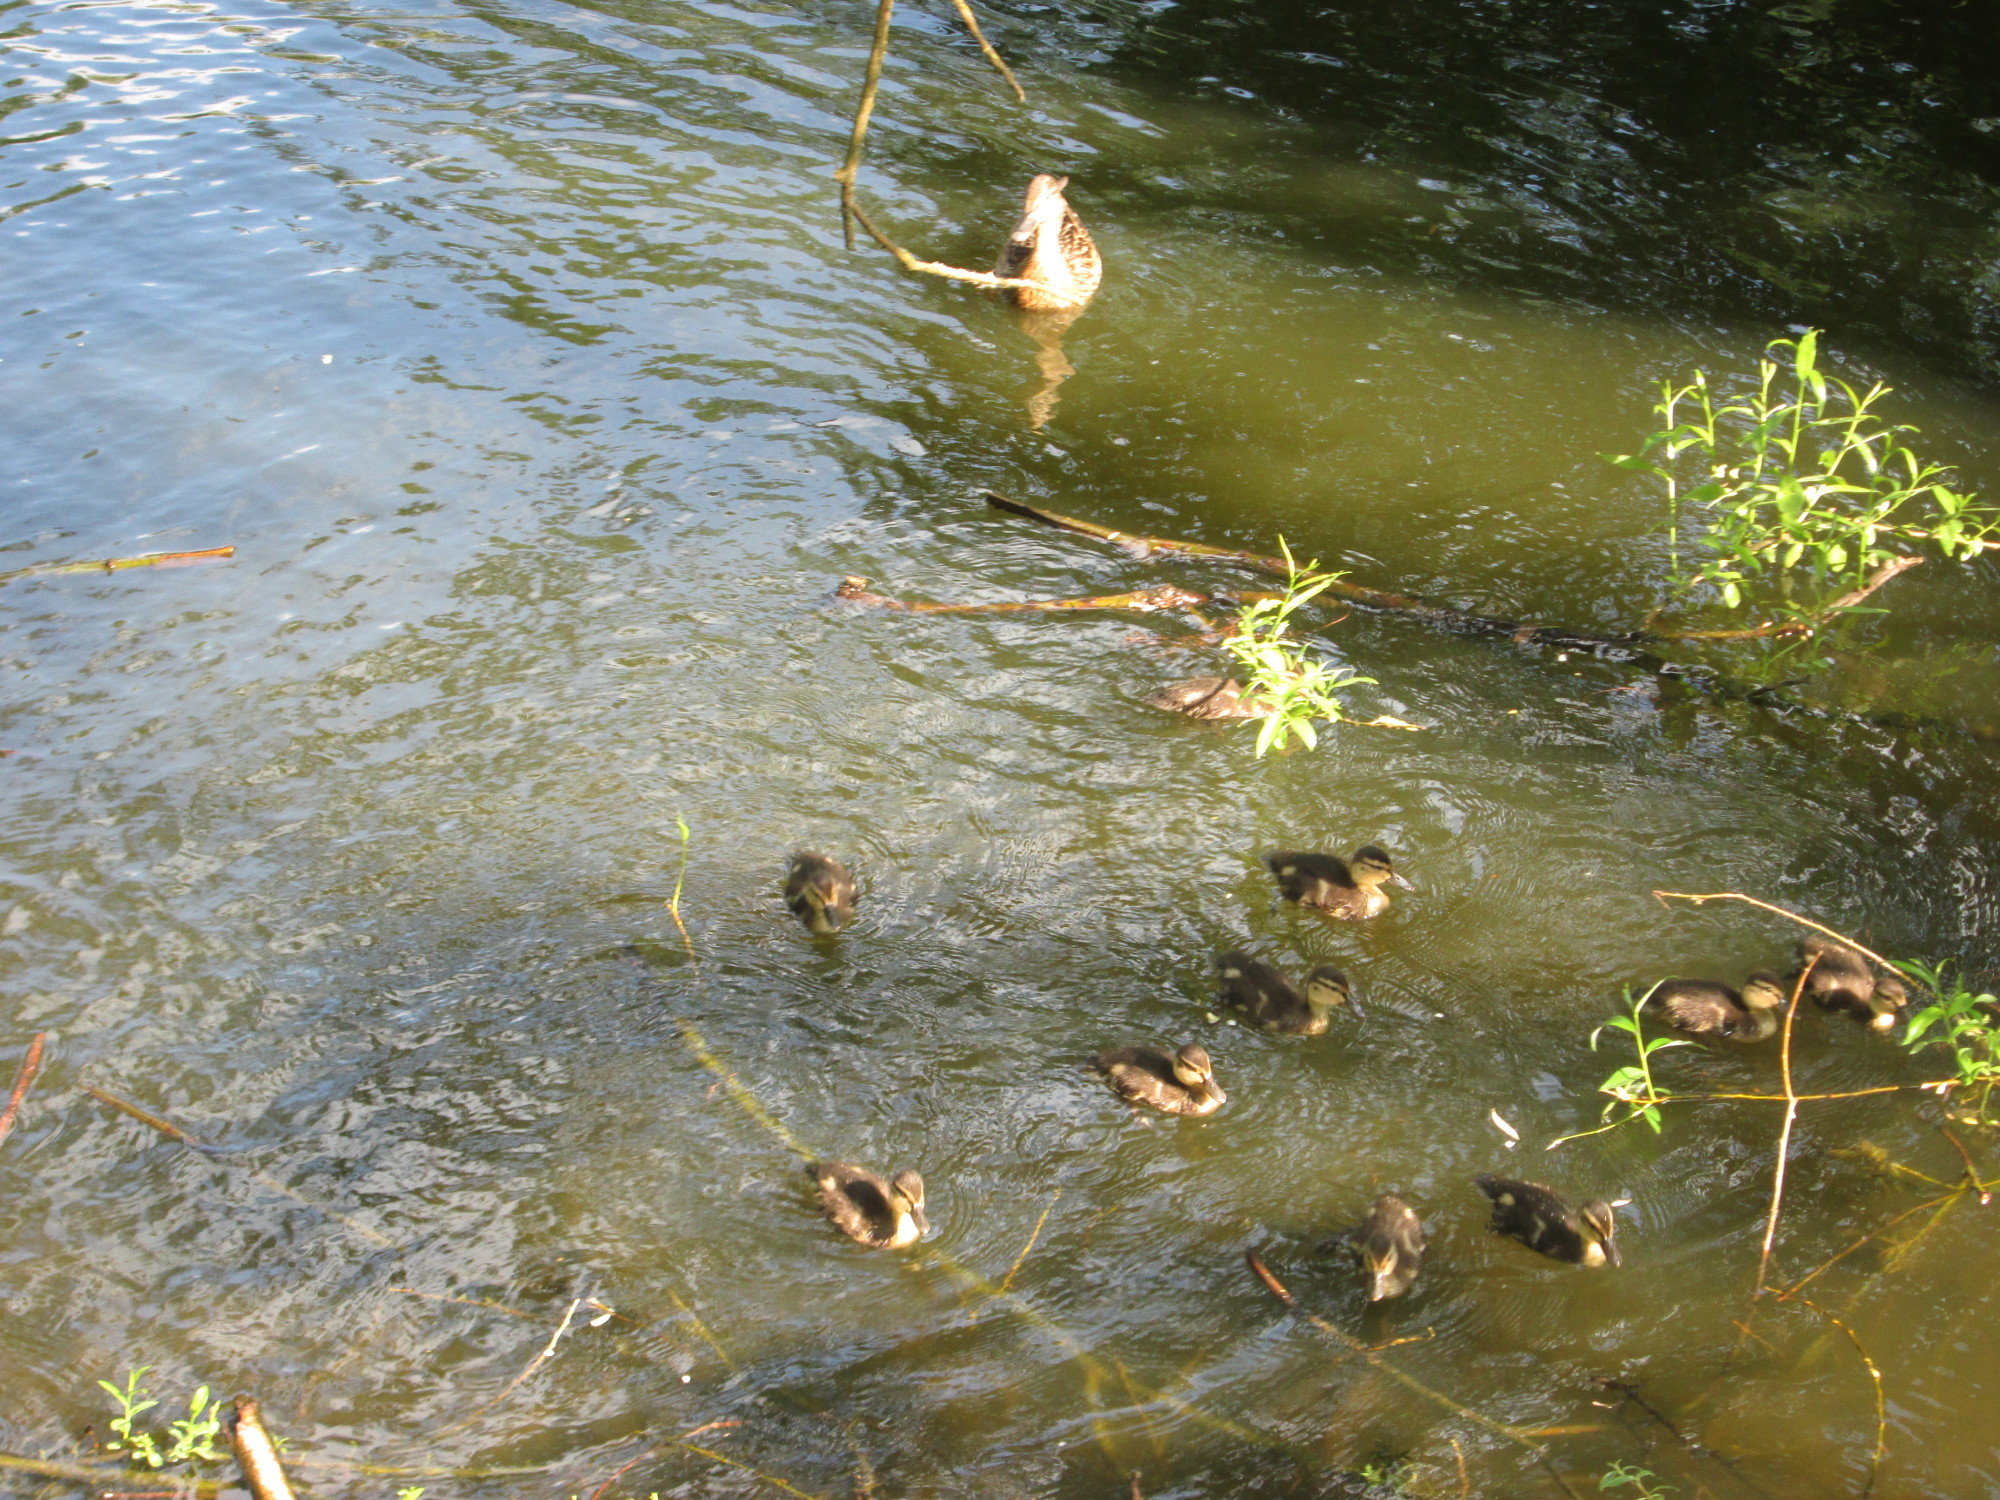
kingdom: Animalia
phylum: Chordata
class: Aves
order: Anseriformes
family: Anatidae
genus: Anas
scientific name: Anas platyrhynchos
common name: Mallard
